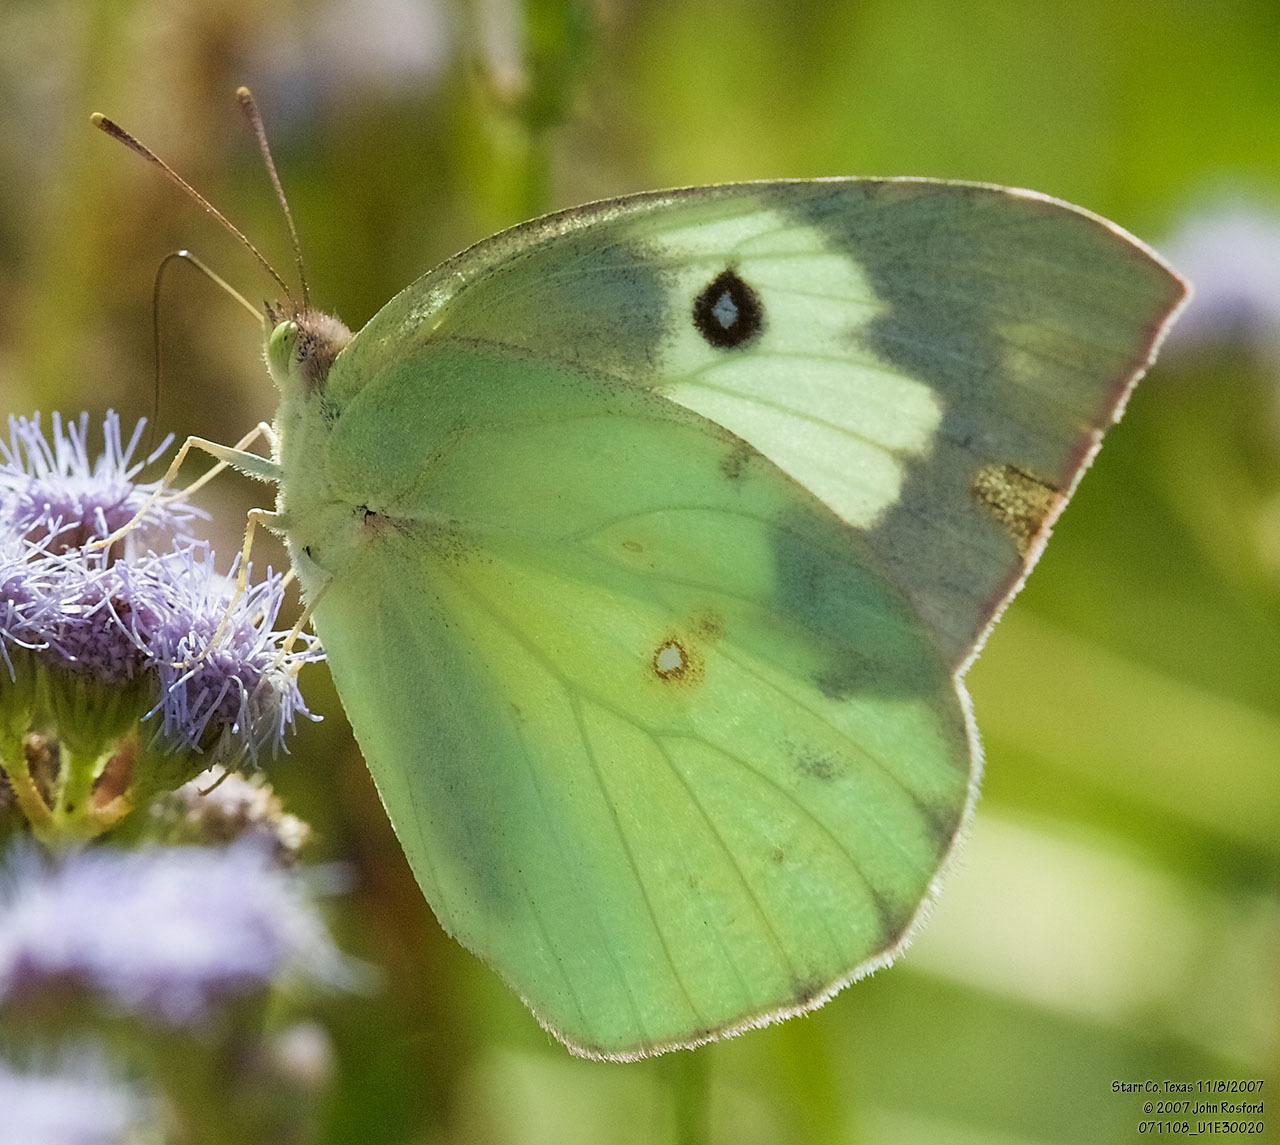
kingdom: Animalia
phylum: Arthropoda
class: Insecta
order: Lepidoptera
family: Pieridae
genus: Zerene
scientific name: Zerene cesonia
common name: Southern dogface
